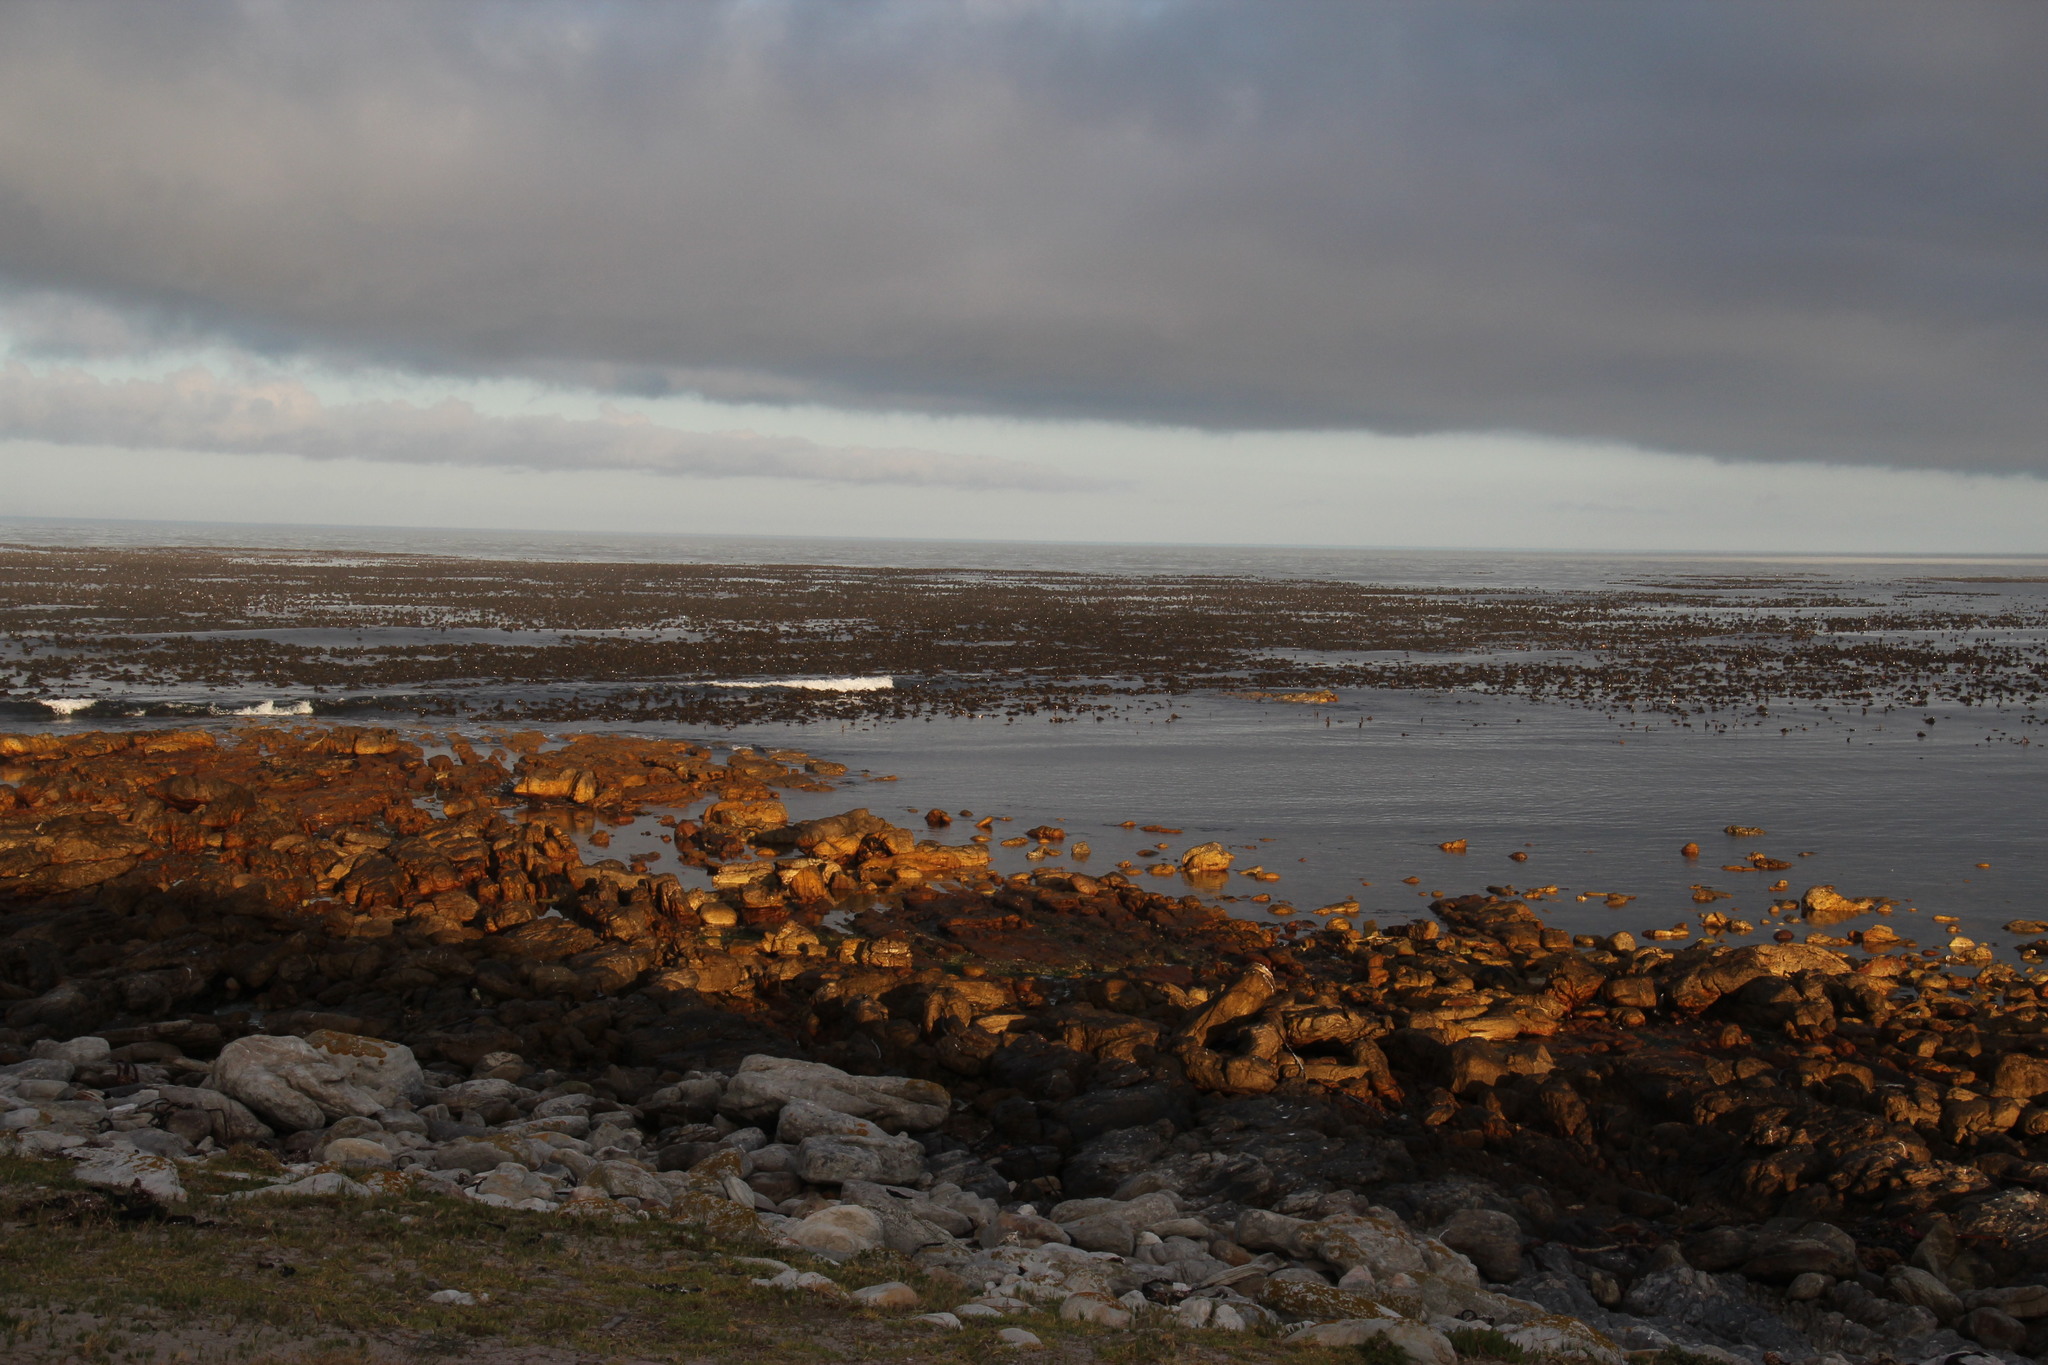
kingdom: Chromista
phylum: Ochrophyta
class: Phaeophyceae
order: Laminariales
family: Lessoniaceae
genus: Ecklonia
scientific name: Ecklonia
